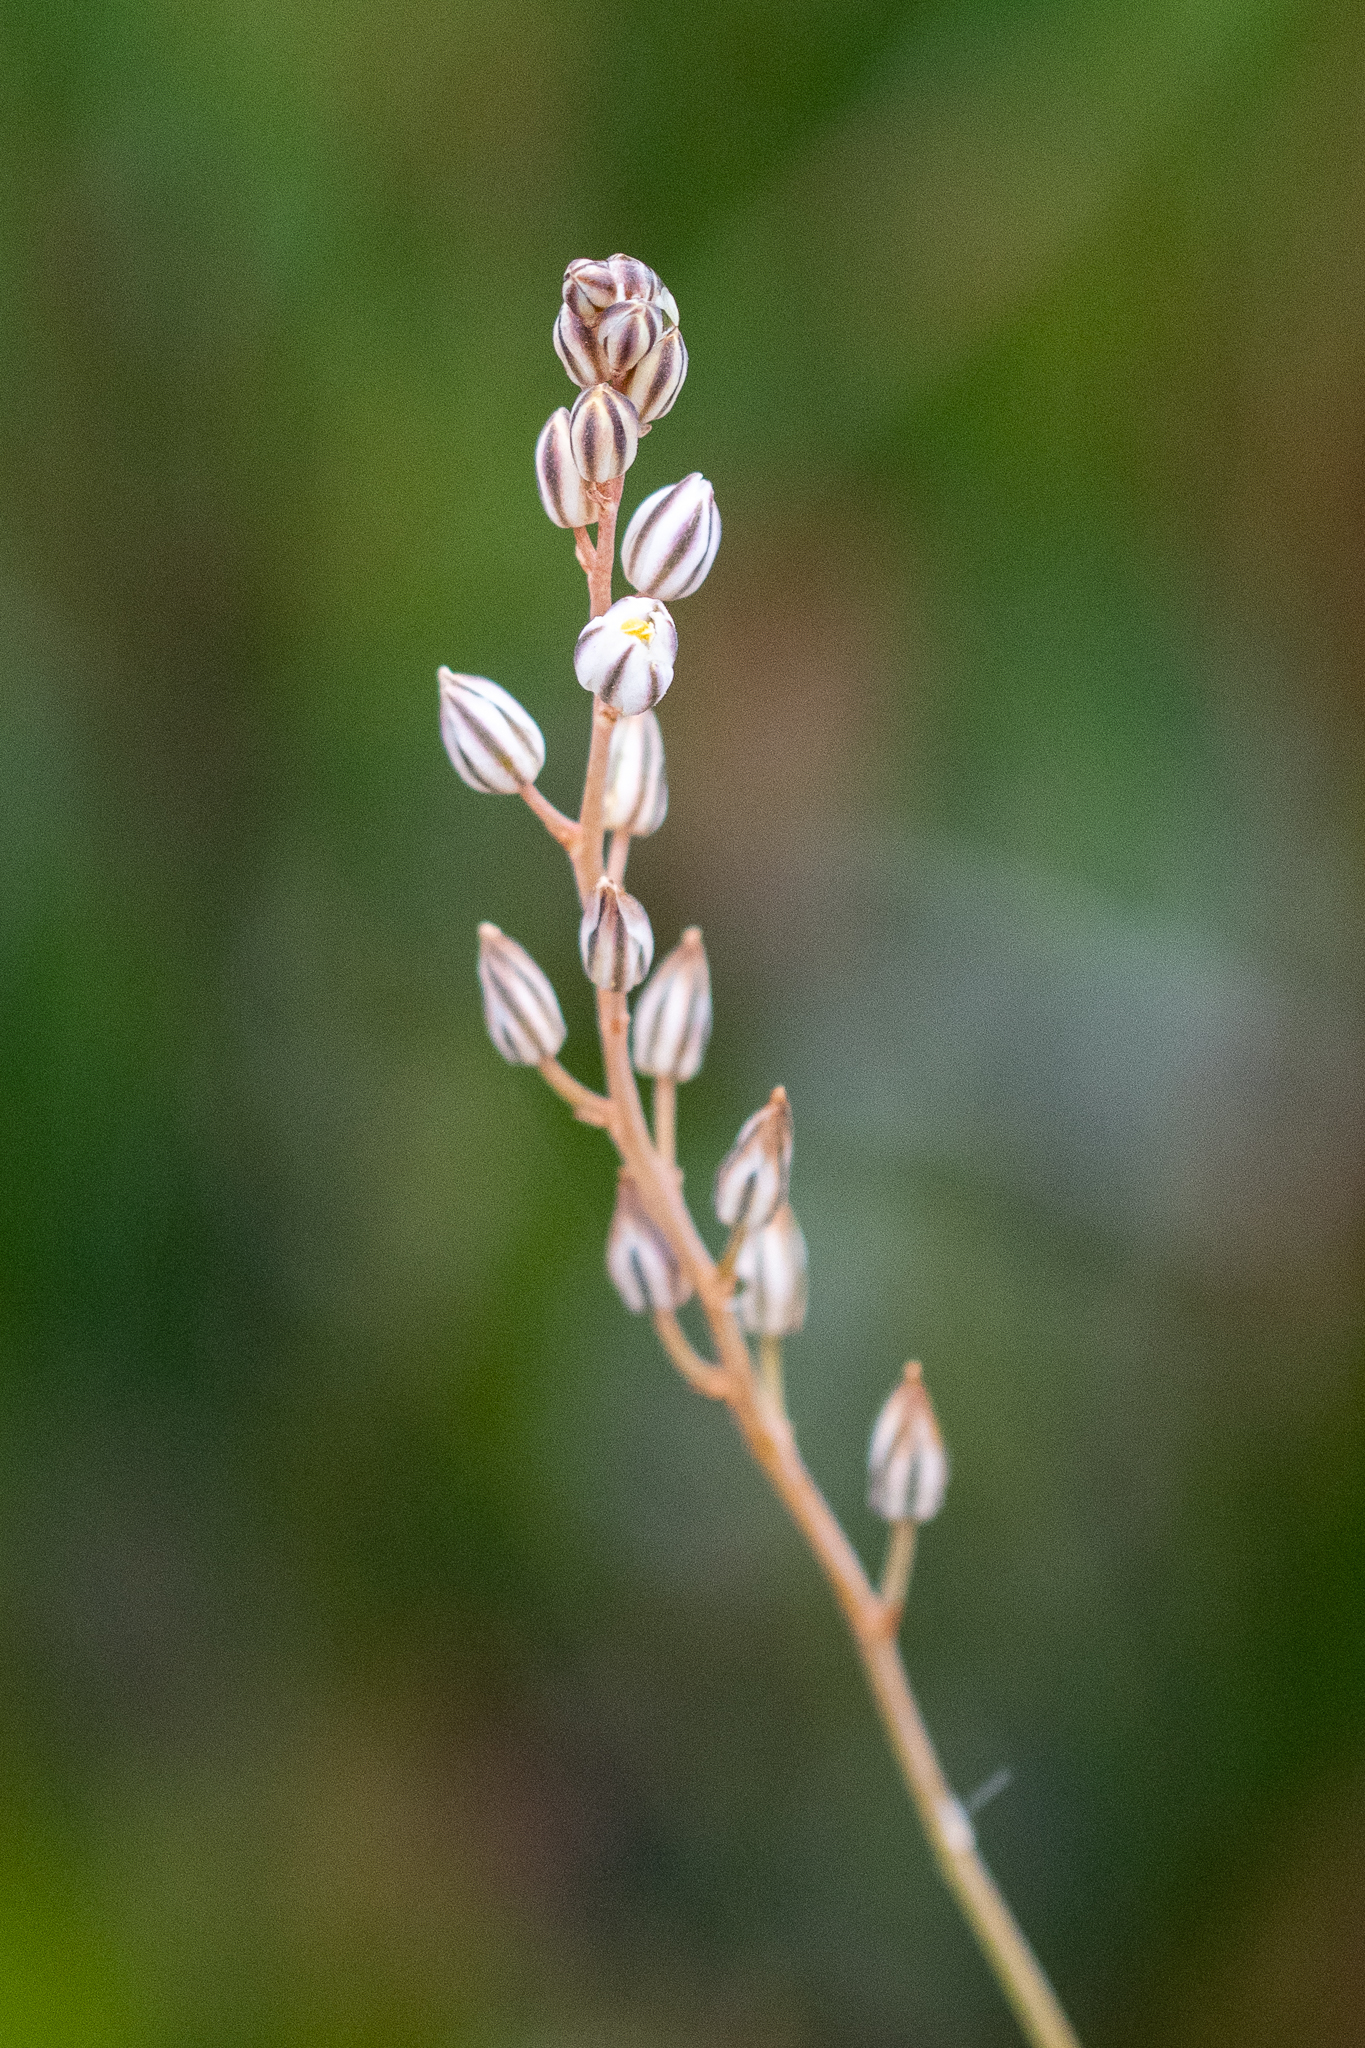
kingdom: Plantae
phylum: Tracheophyta
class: Liliopsida
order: Asparagales
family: Asparagaceae
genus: Eriospermum
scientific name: Eriospermum cernuum
